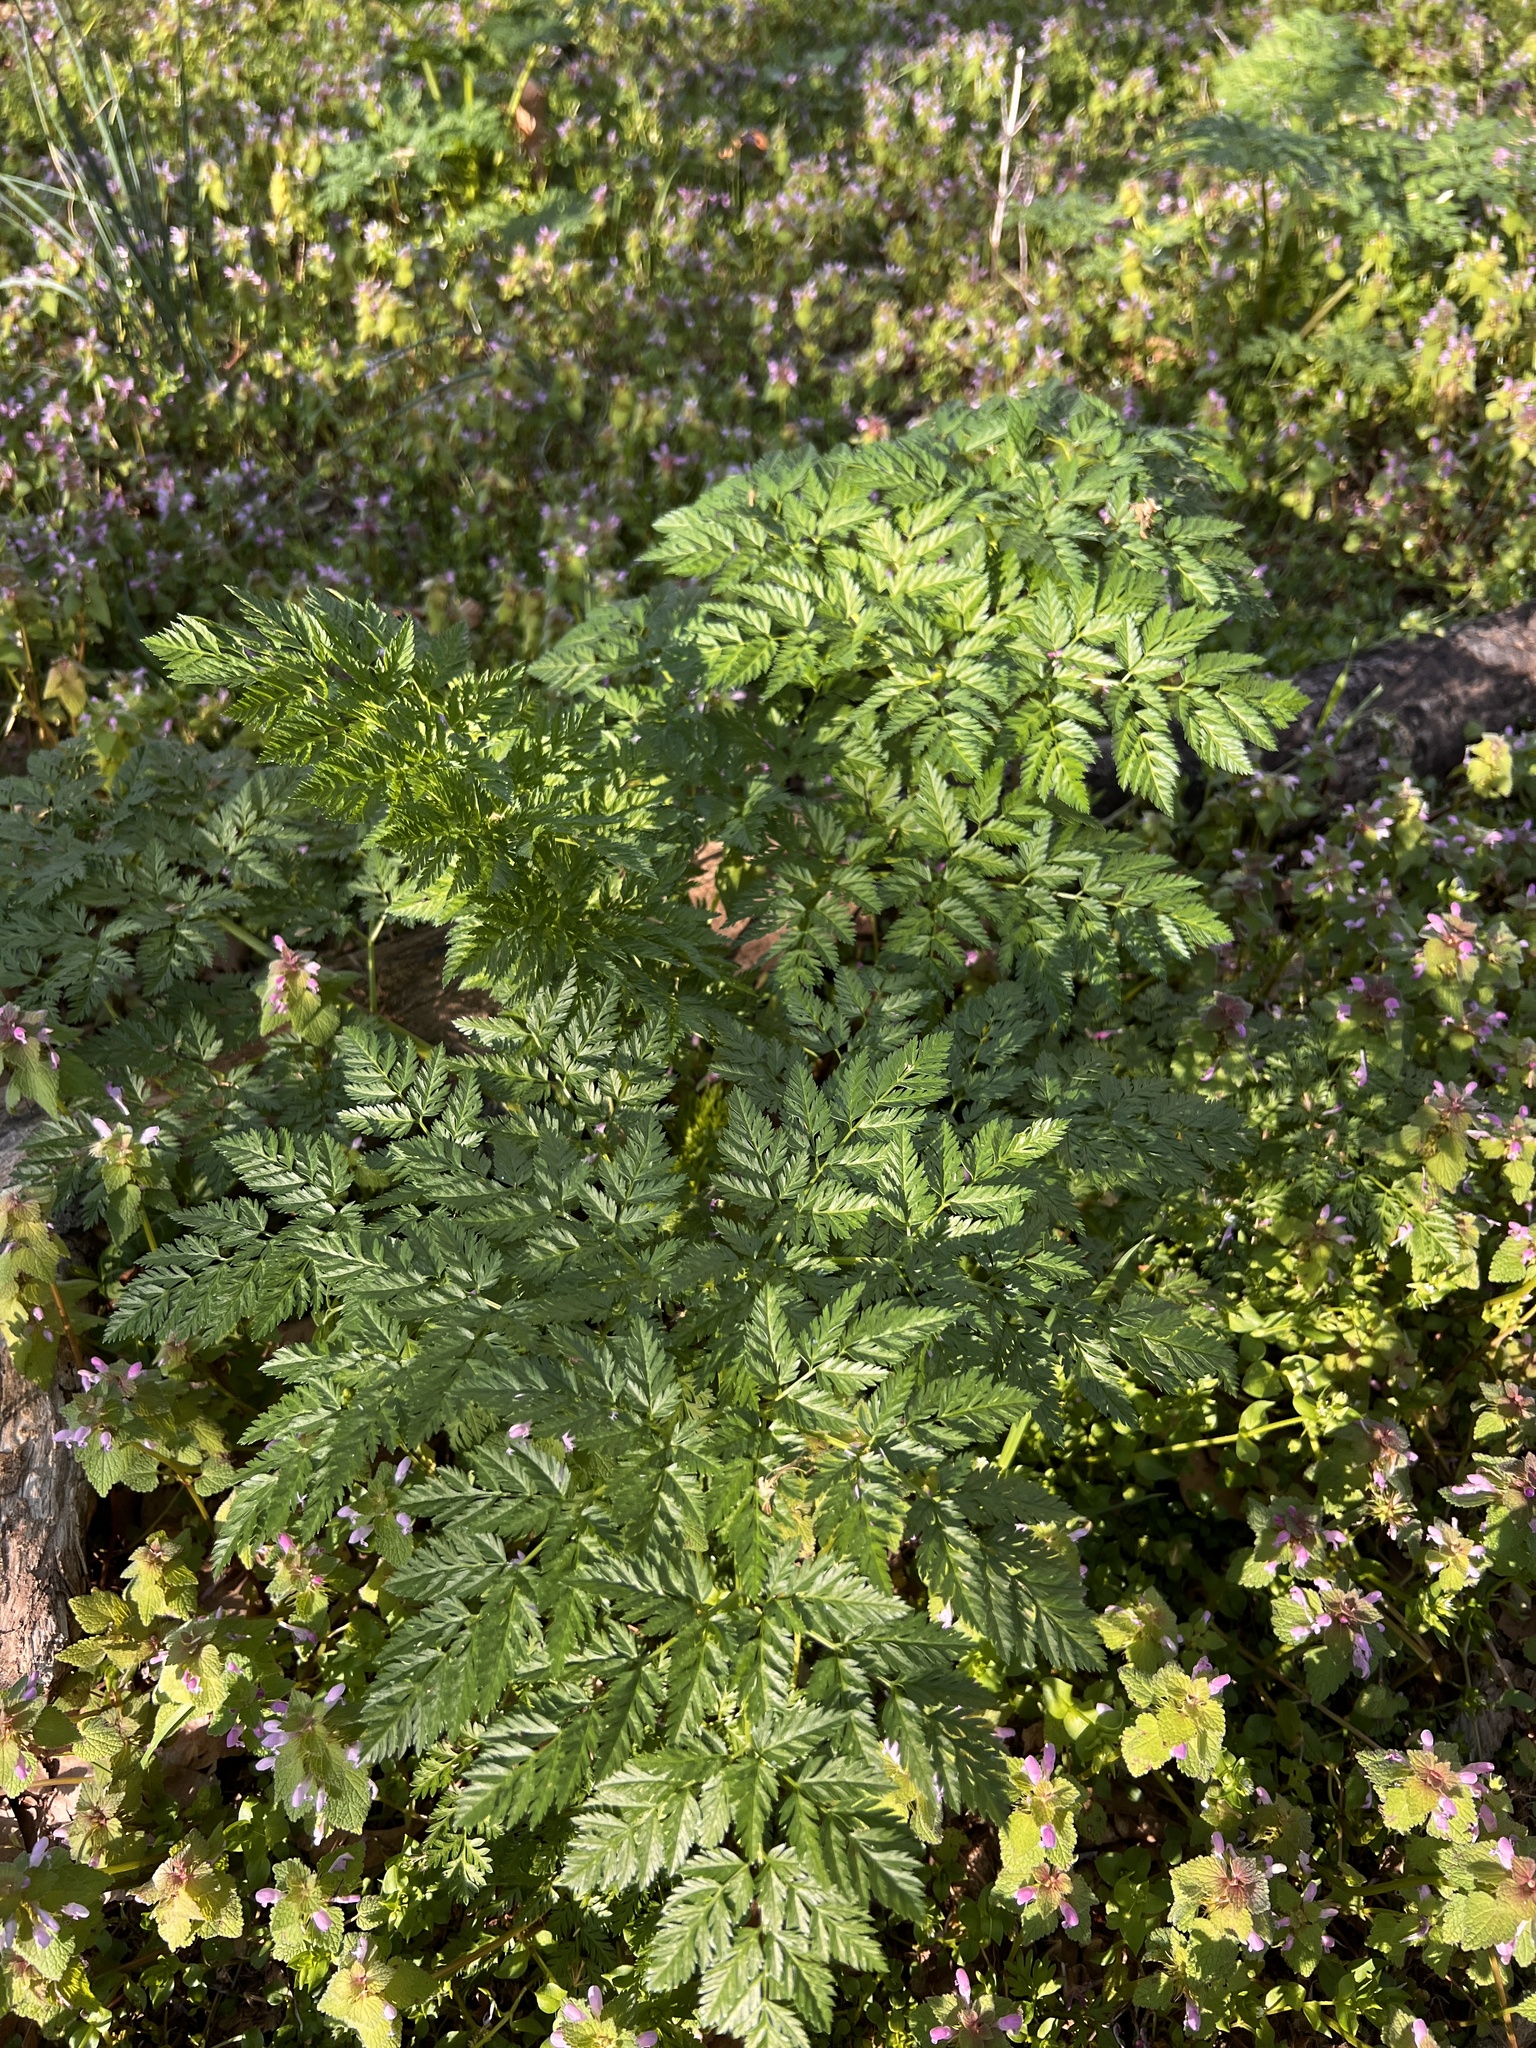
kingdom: Plantae
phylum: Tracheophyta
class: Magnoliopsida
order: Apiales
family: Apiaceae
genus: Conium
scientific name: Conium maculatum
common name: Hemlock
